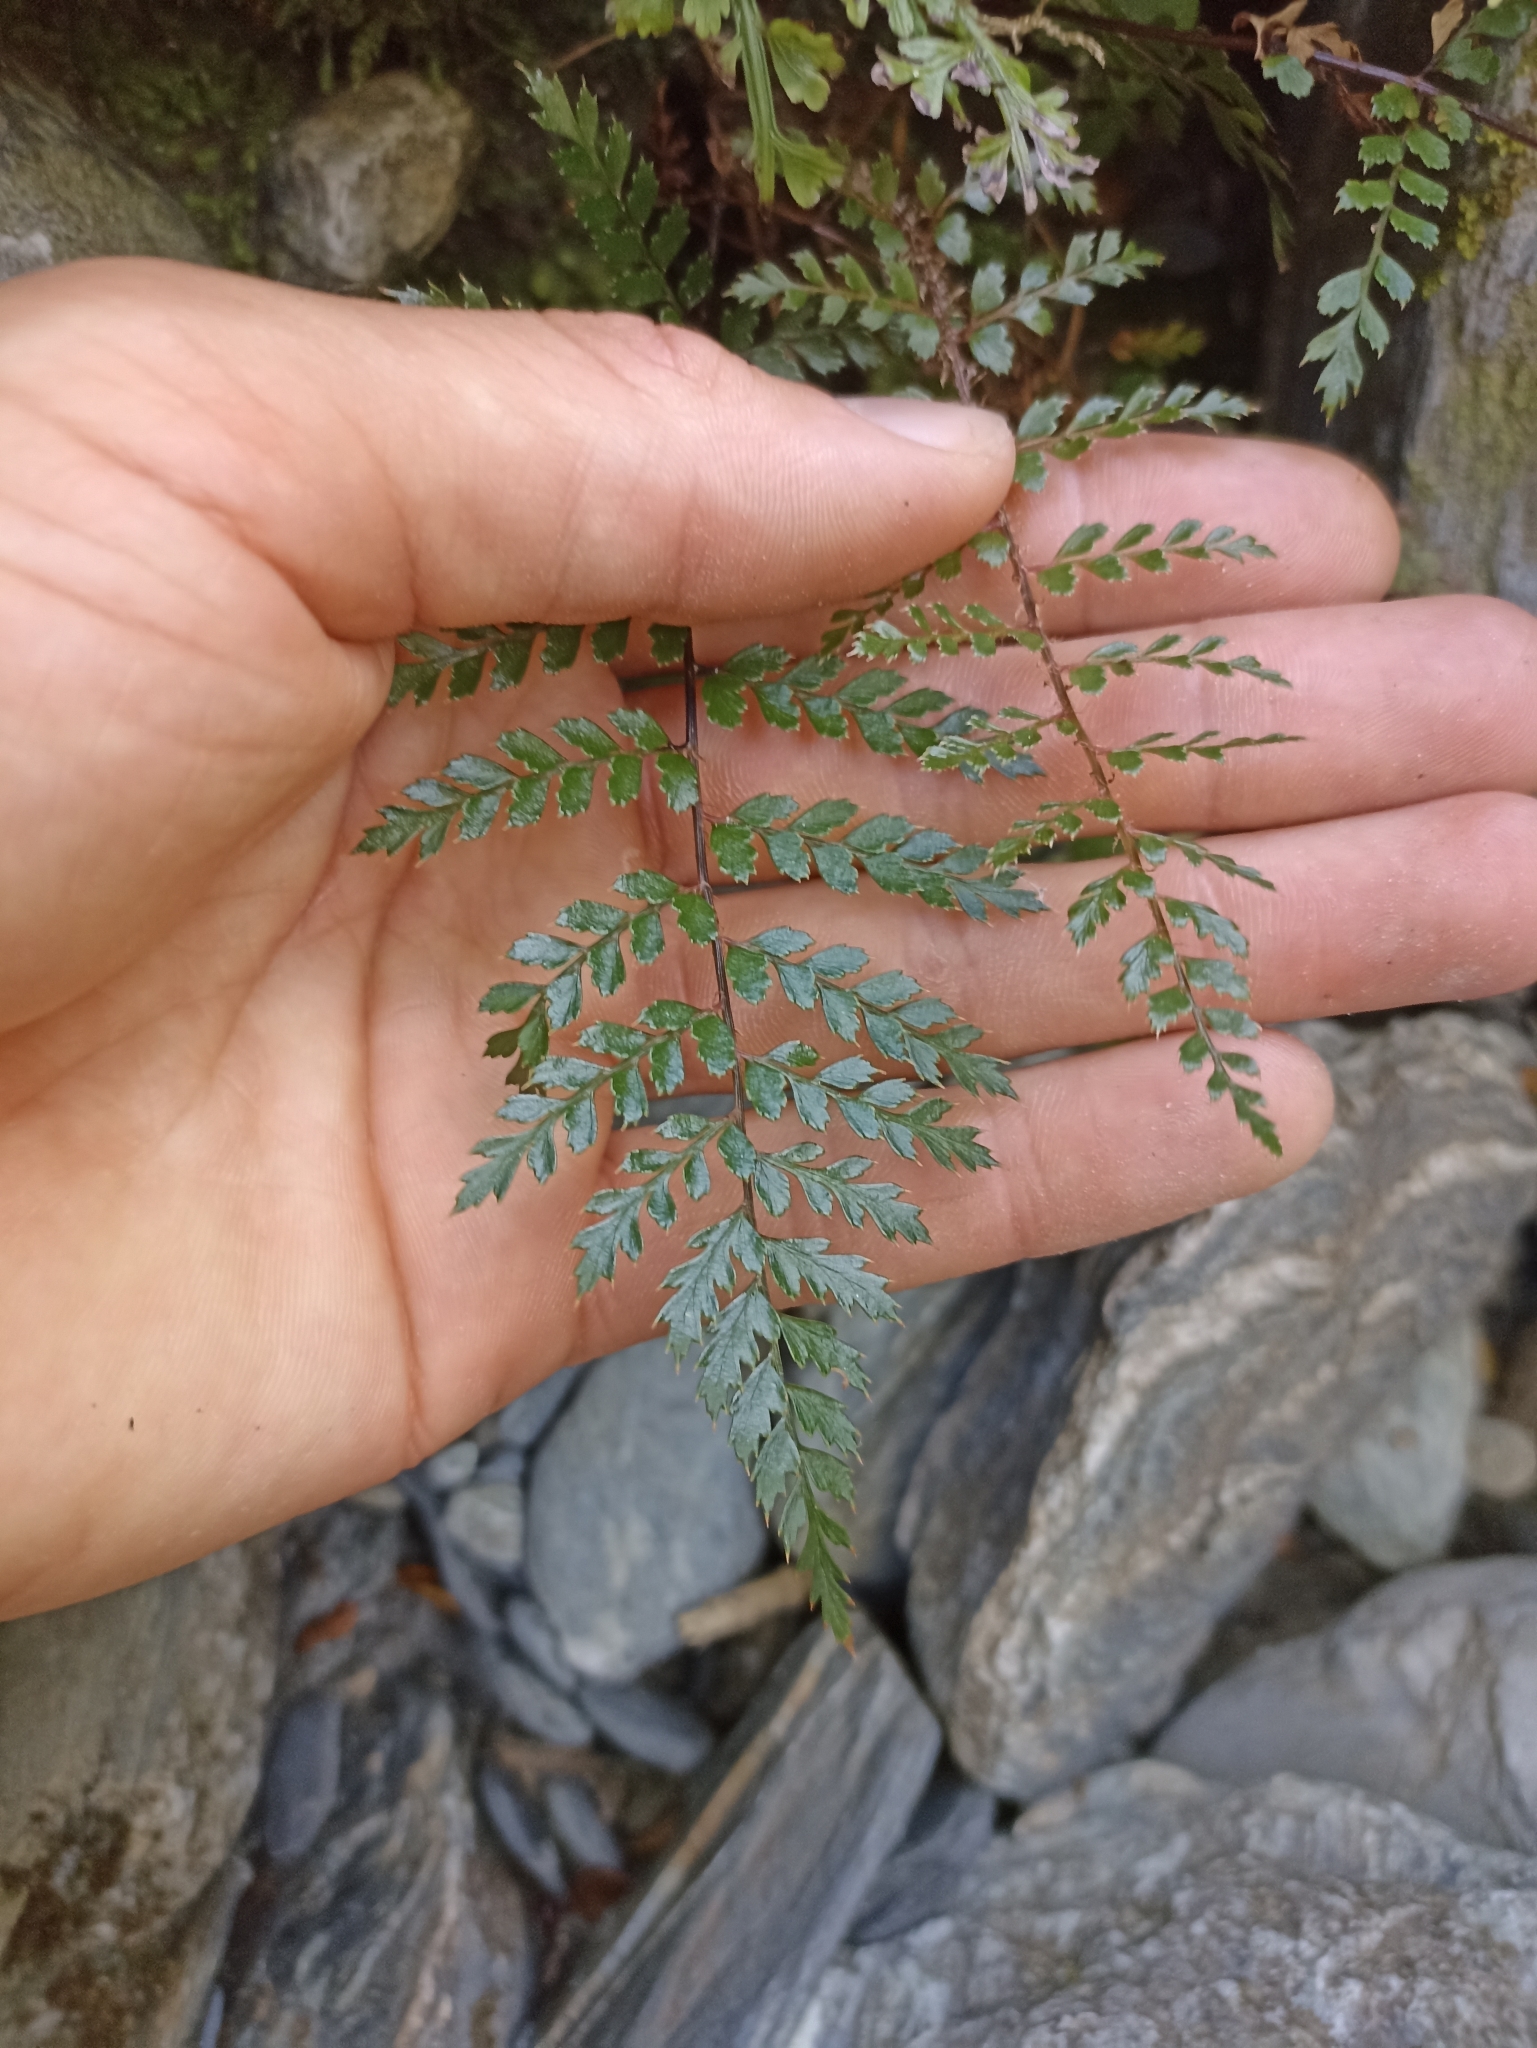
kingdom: Plantae
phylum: Tracheophyta
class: Polypodiopsida
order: Polypodiales
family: Dryopteridaceae
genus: Polystichum
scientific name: Polystichum vestitum
